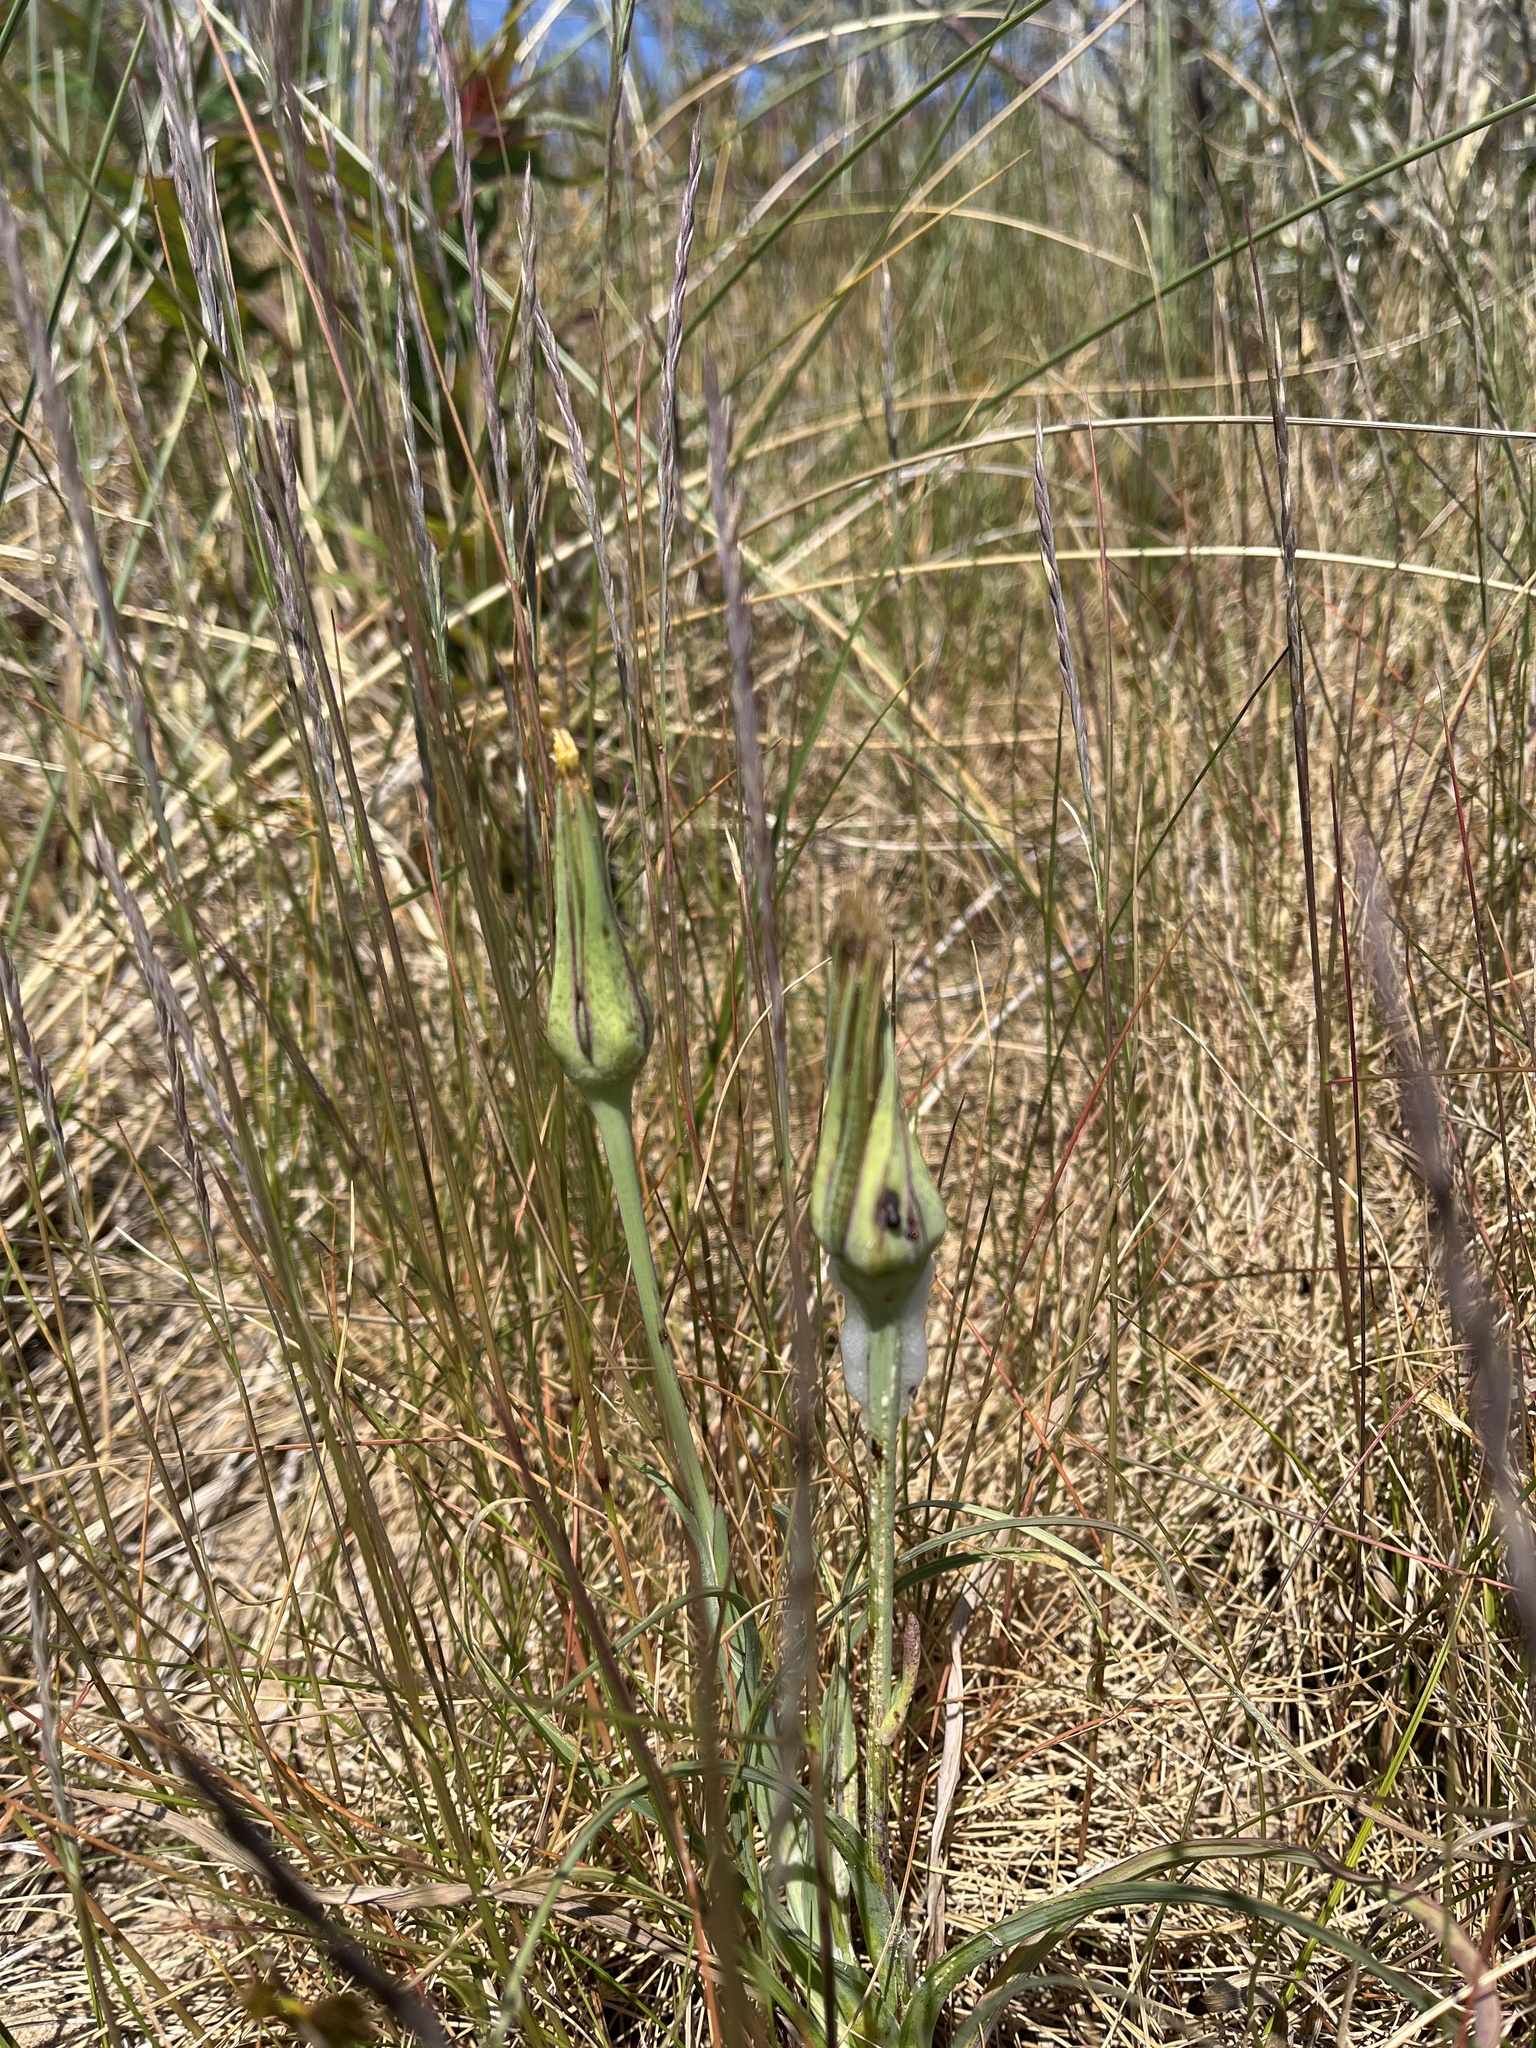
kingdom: Plantae
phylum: Tracheophyta
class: Magnoliopsida
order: Asterales
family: Asteraceae
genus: Tragopogon
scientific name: Tragopogon pratensis
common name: Goat's-beard
